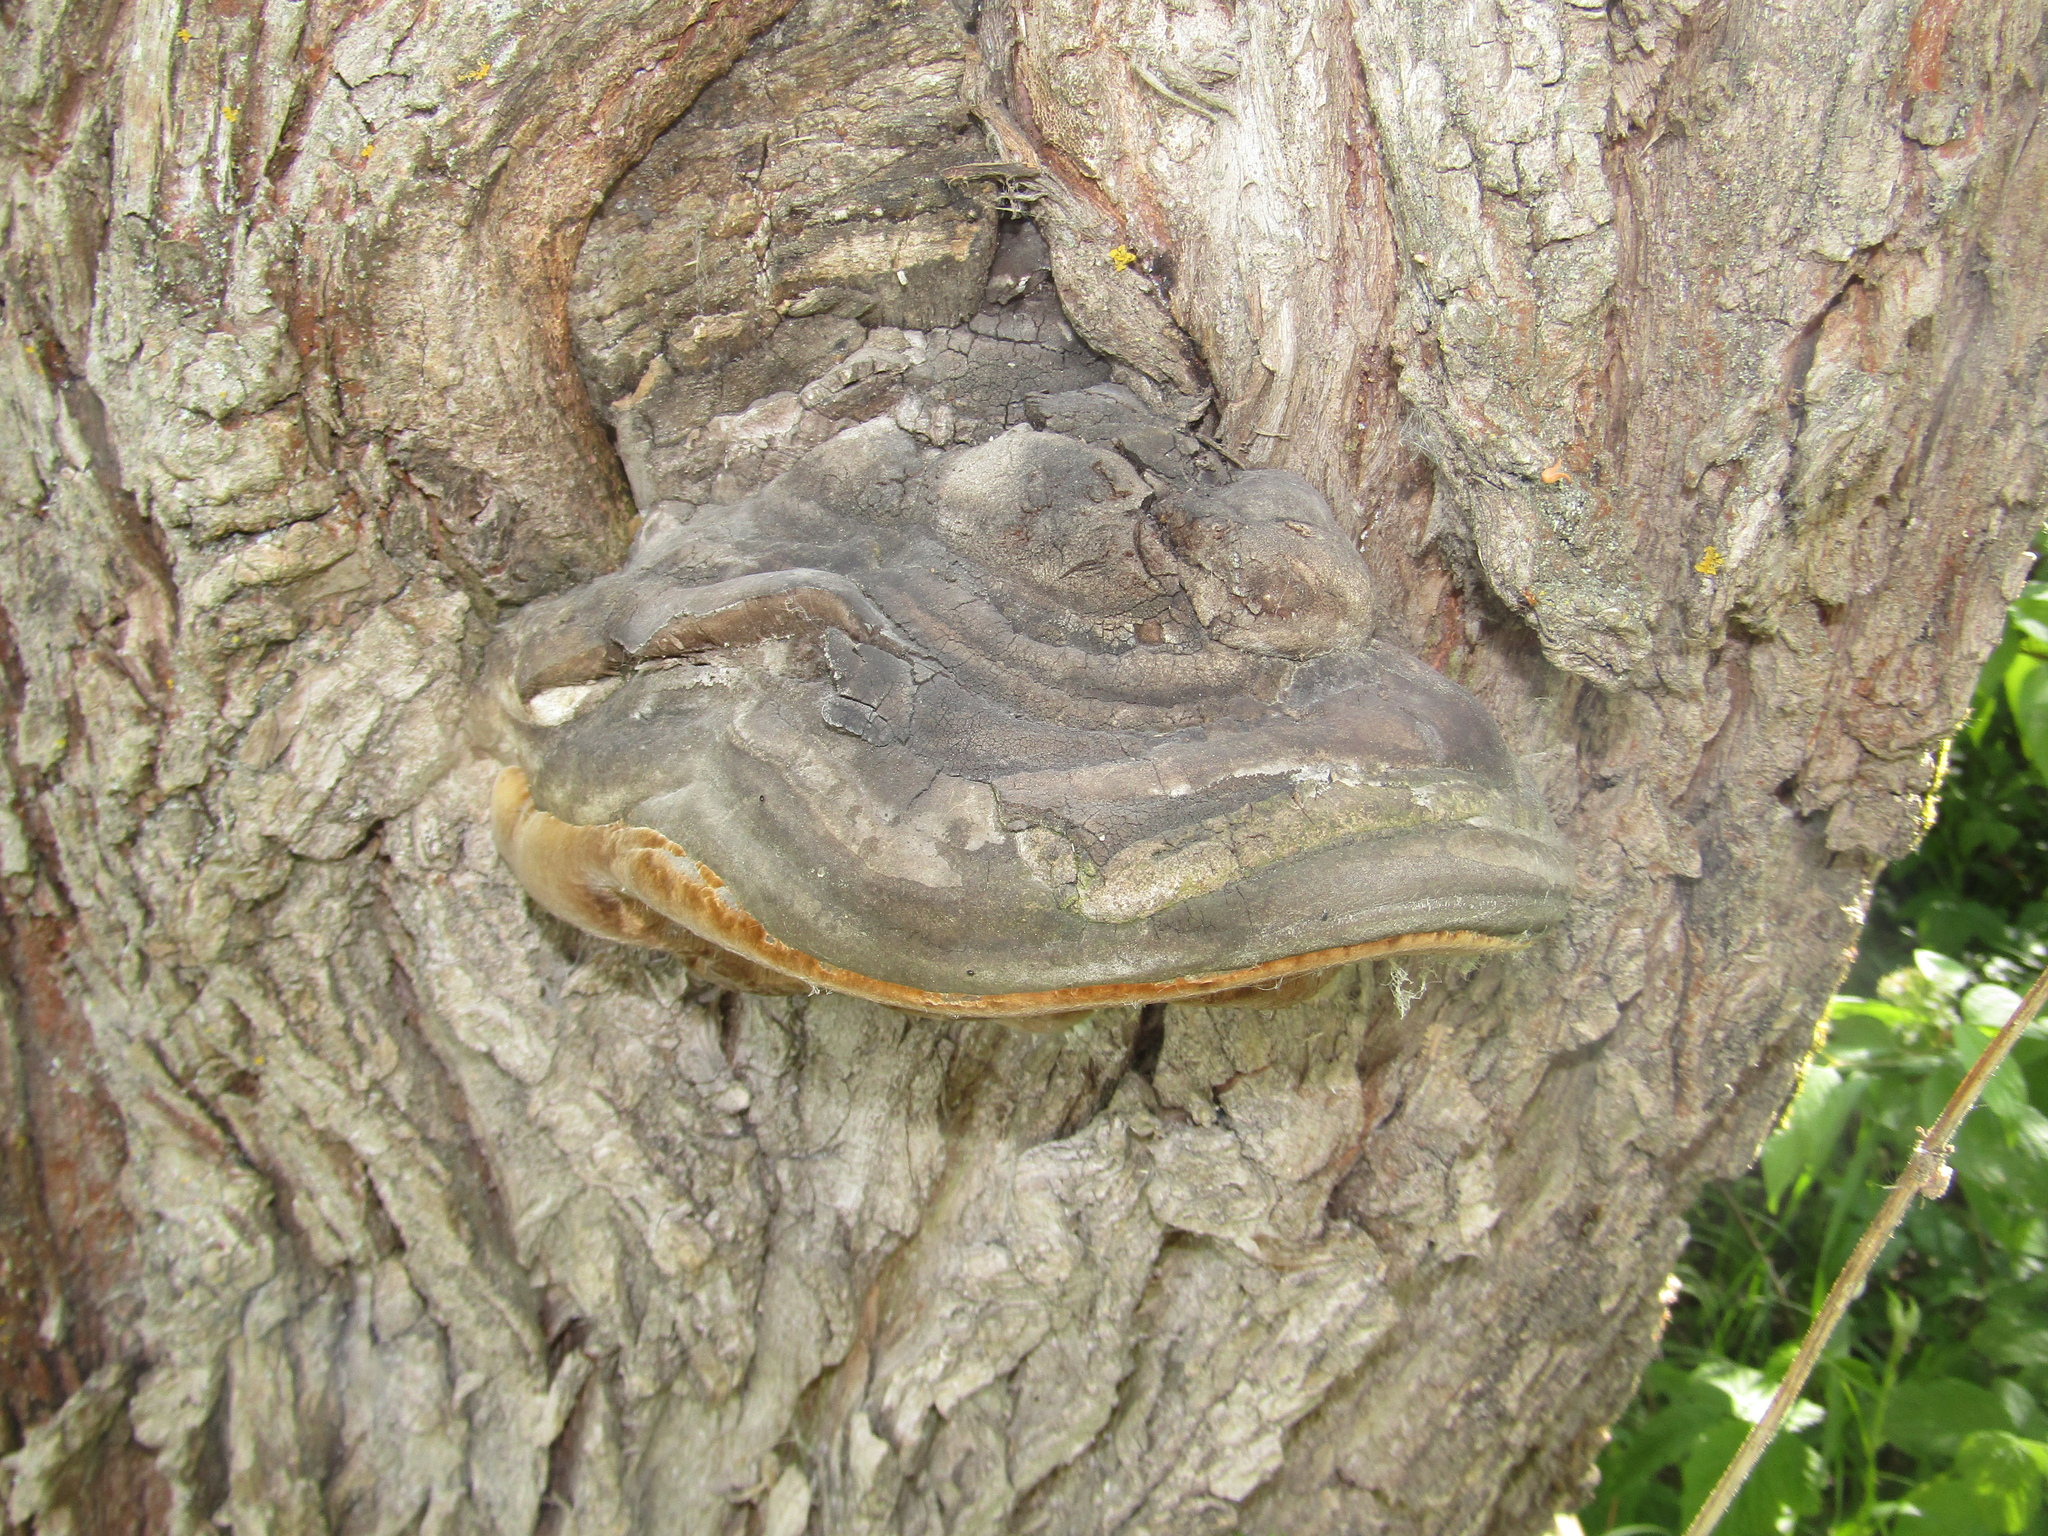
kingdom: Fungi
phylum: Basidiomycota
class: Agaricomycetes
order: Hymenochaetales
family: Hymenochaetaceae
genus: Phellinus
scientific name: Phellinus igniarius
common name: Willow bracket
